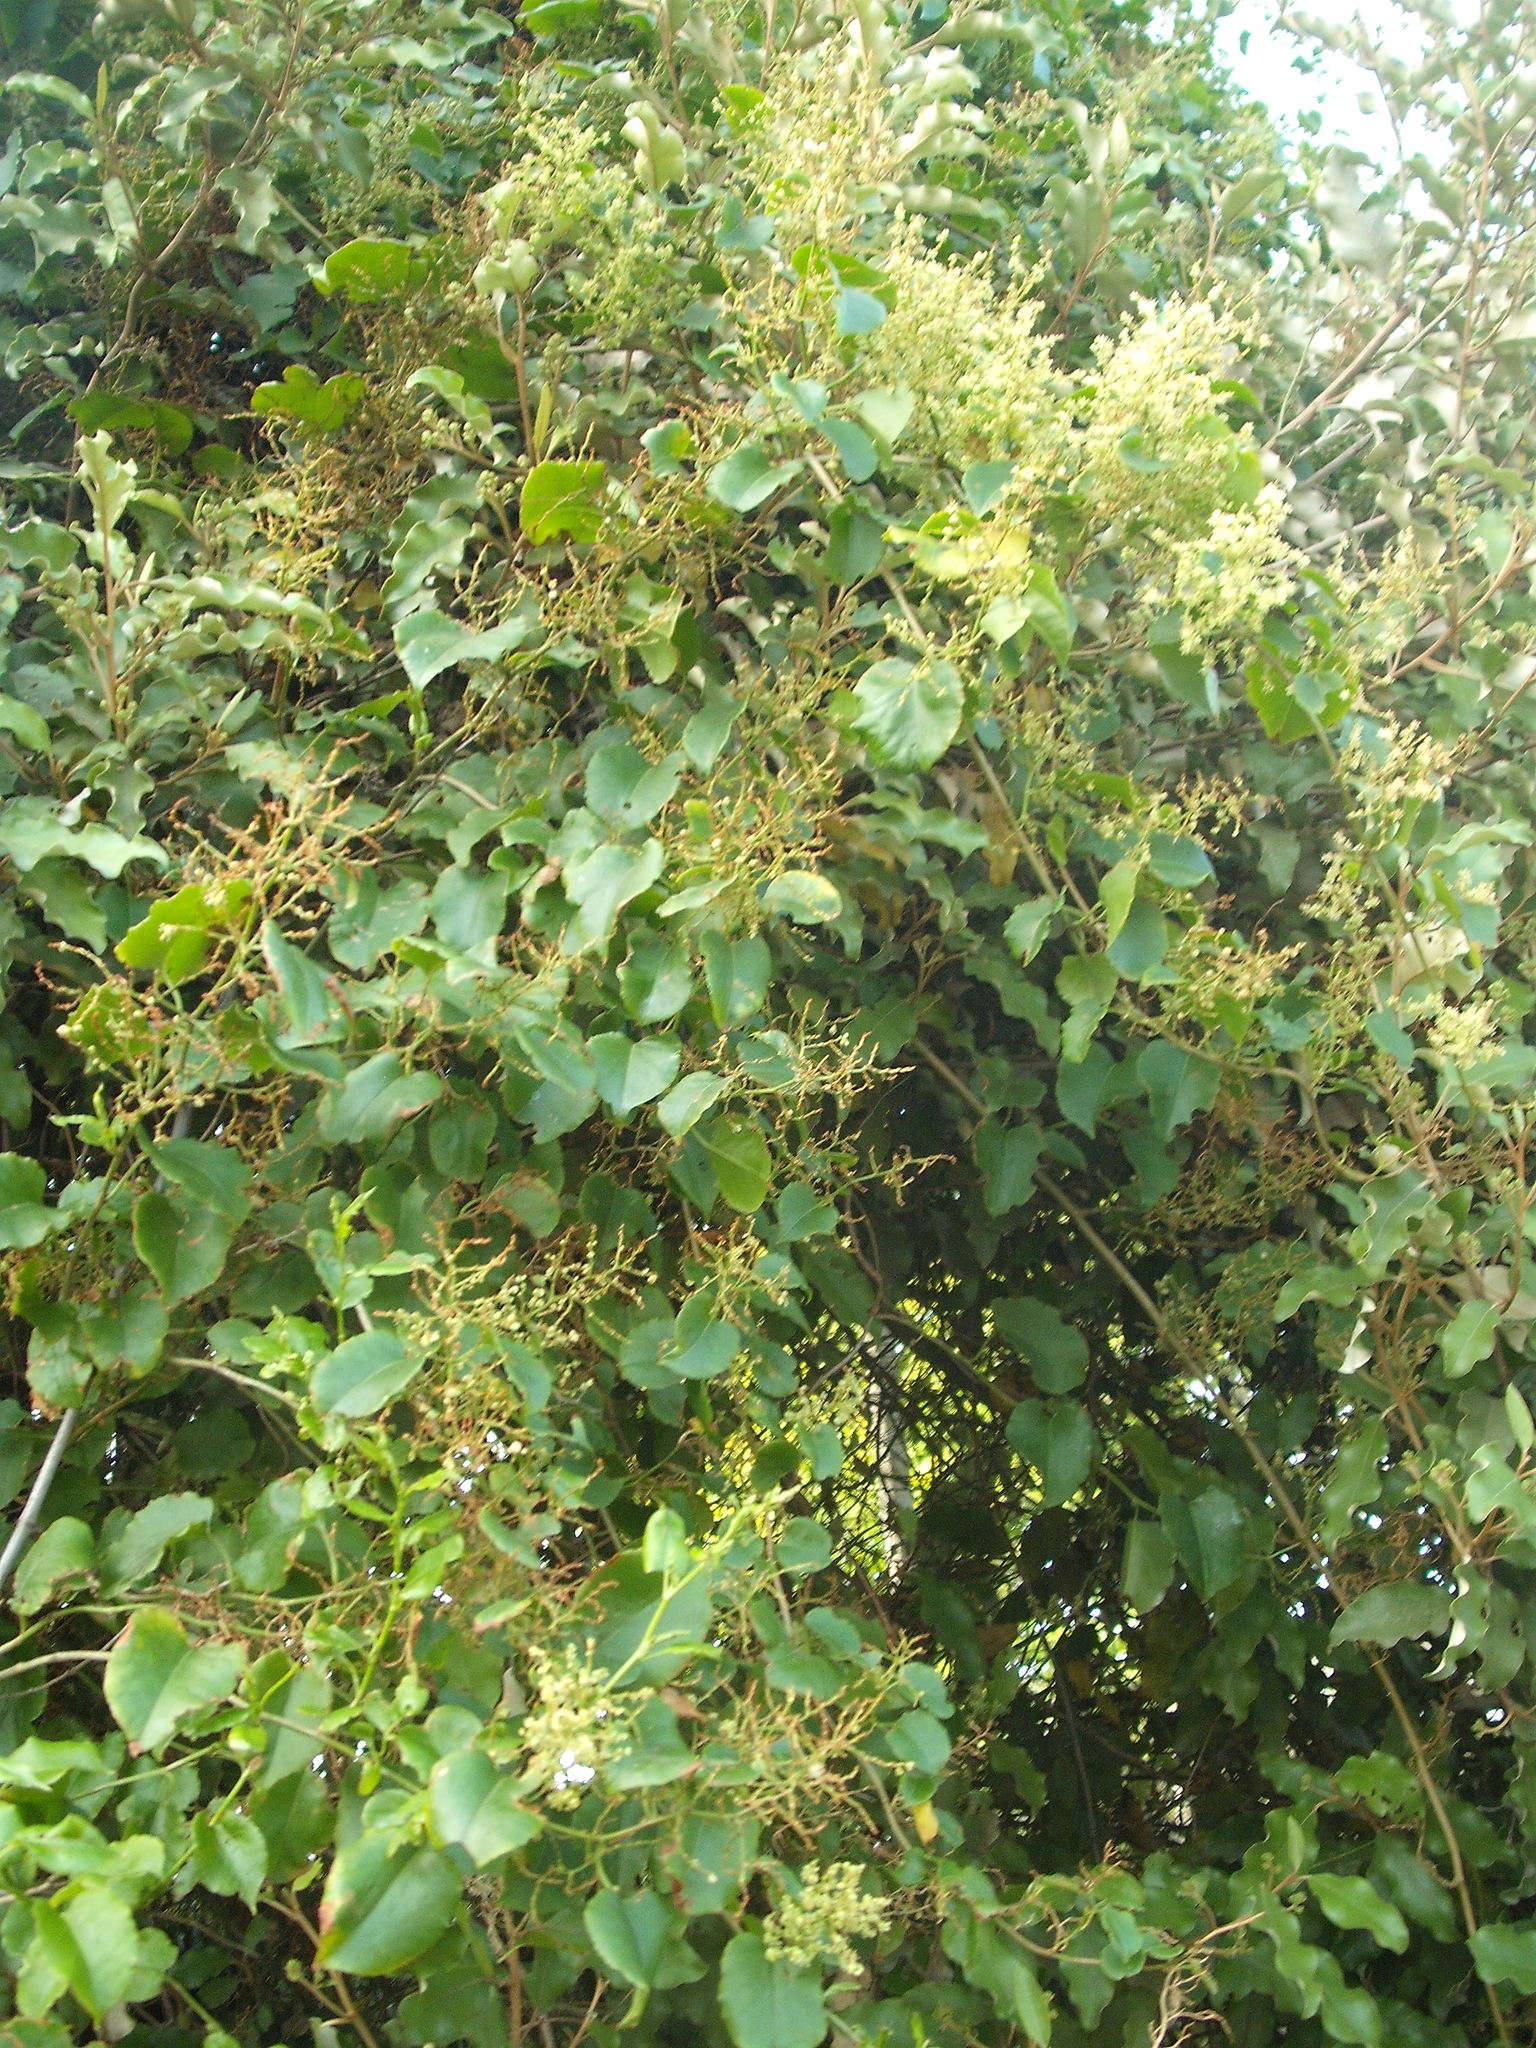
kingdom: Plantae
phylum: Tracheophyta
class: Magnoliopsida
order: Caryophyllales
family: Polygonaceae
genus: Muehlenbeckia
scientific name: Muehlenbeckia australis
